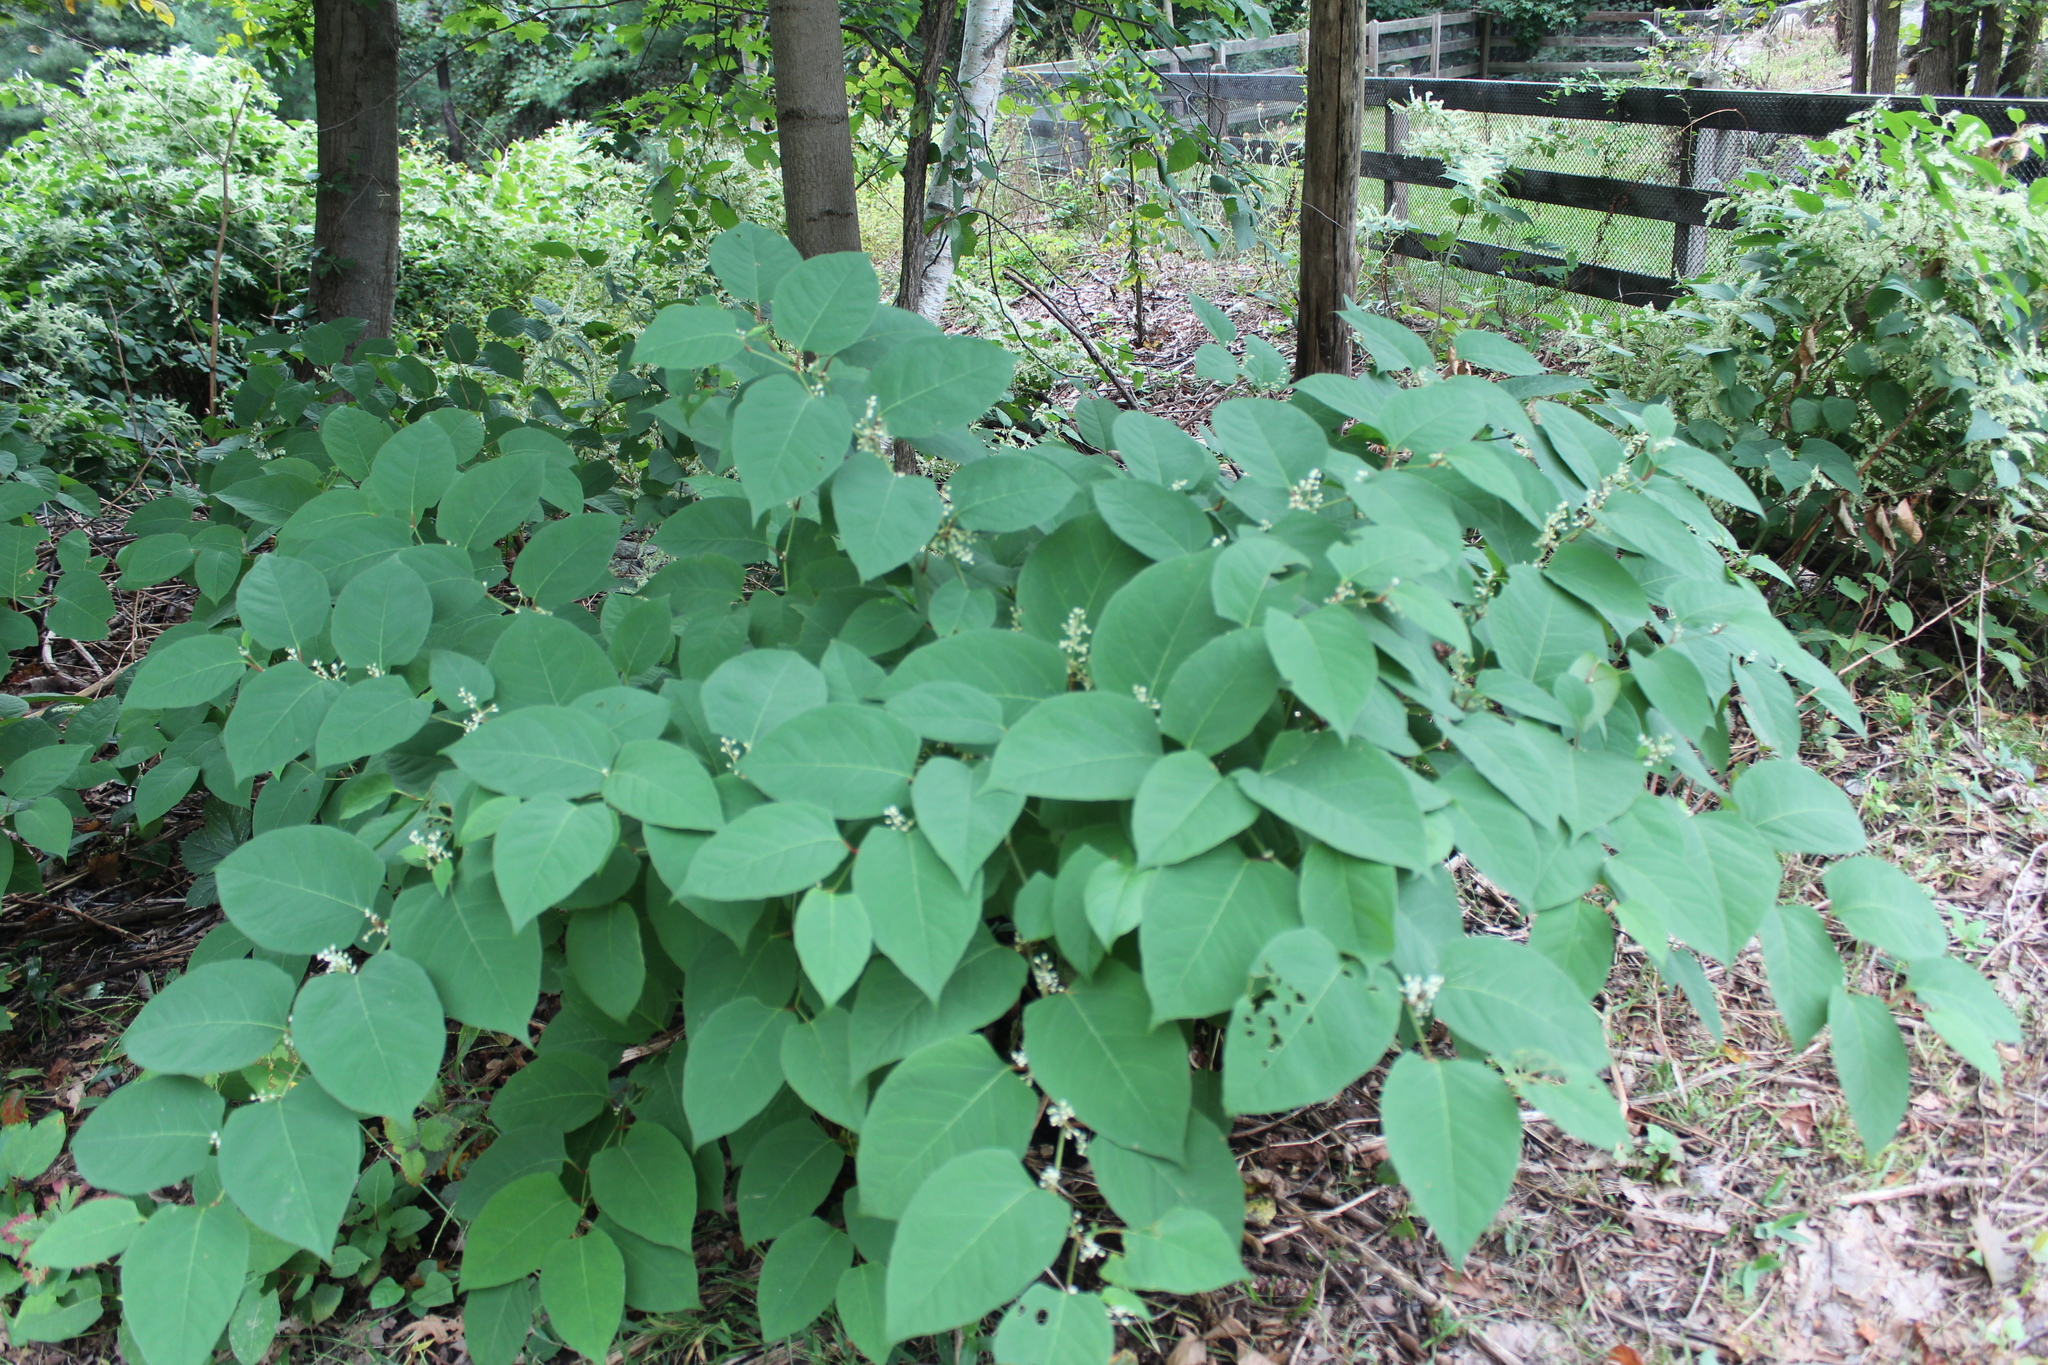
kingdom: Plantae
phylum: Tracheophyta
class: Magnoliopsida
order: Caryophyllales
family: Polygonaceae
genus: Reynoutria
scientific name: Reynoutria japonica
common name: Japanese knotweed
